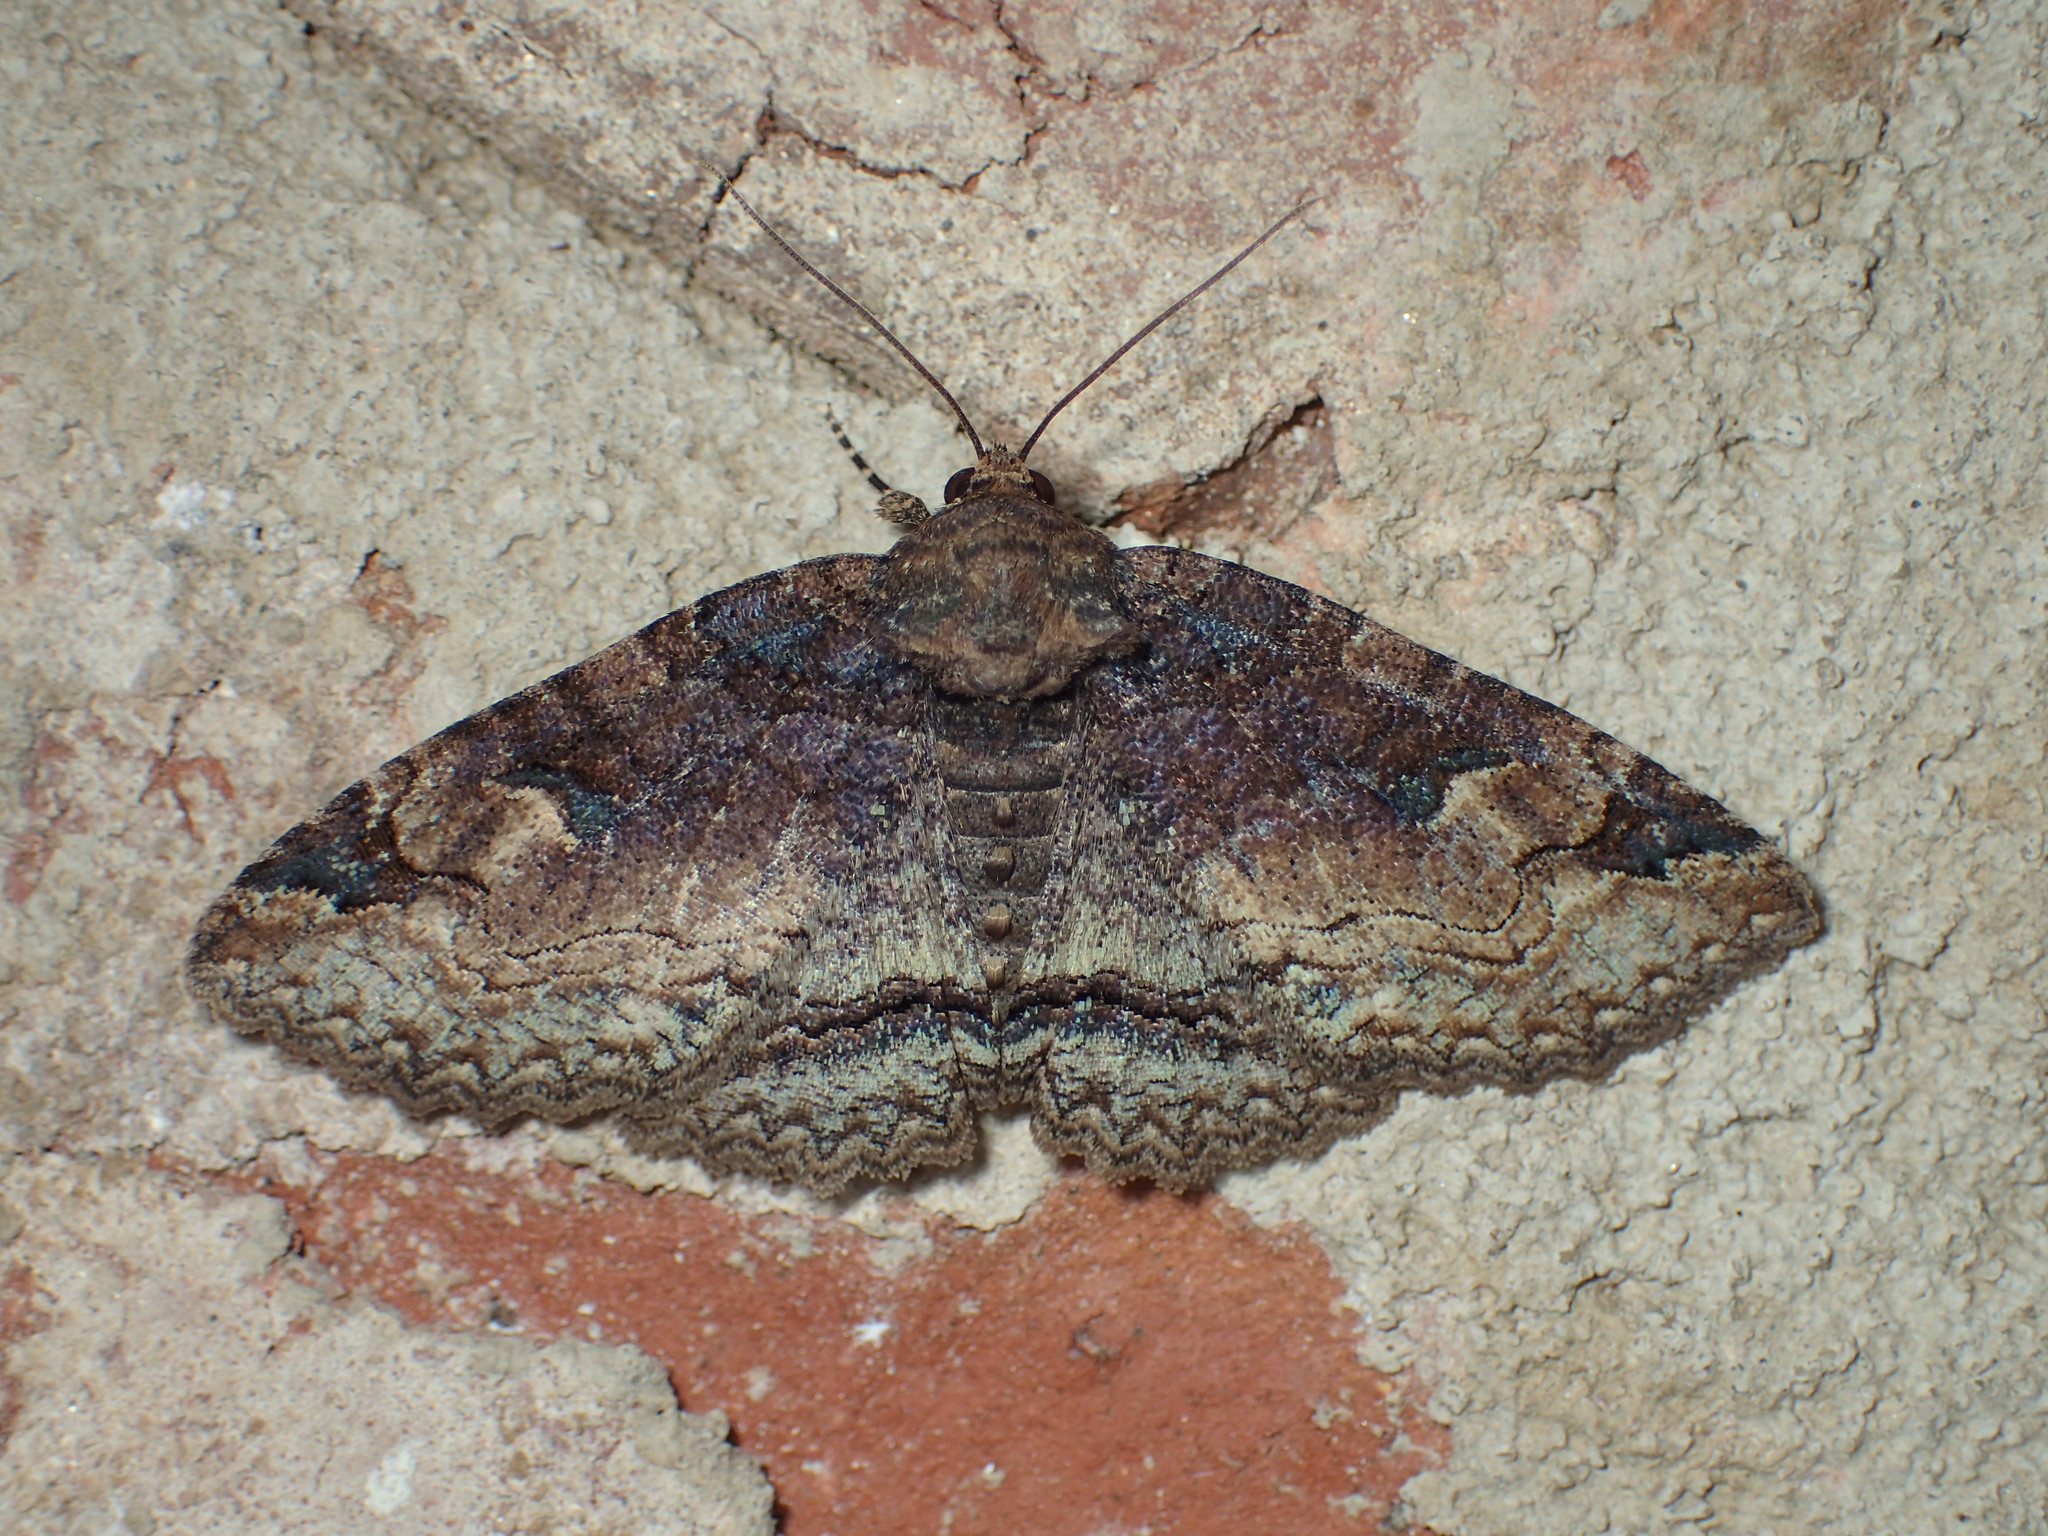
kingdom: Animalia
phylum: Arthropoda
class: Insecta
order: Lepidoptera
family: Erebidae
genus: Zale
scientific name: Zale phaeocapna
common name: Hazel zale moth
